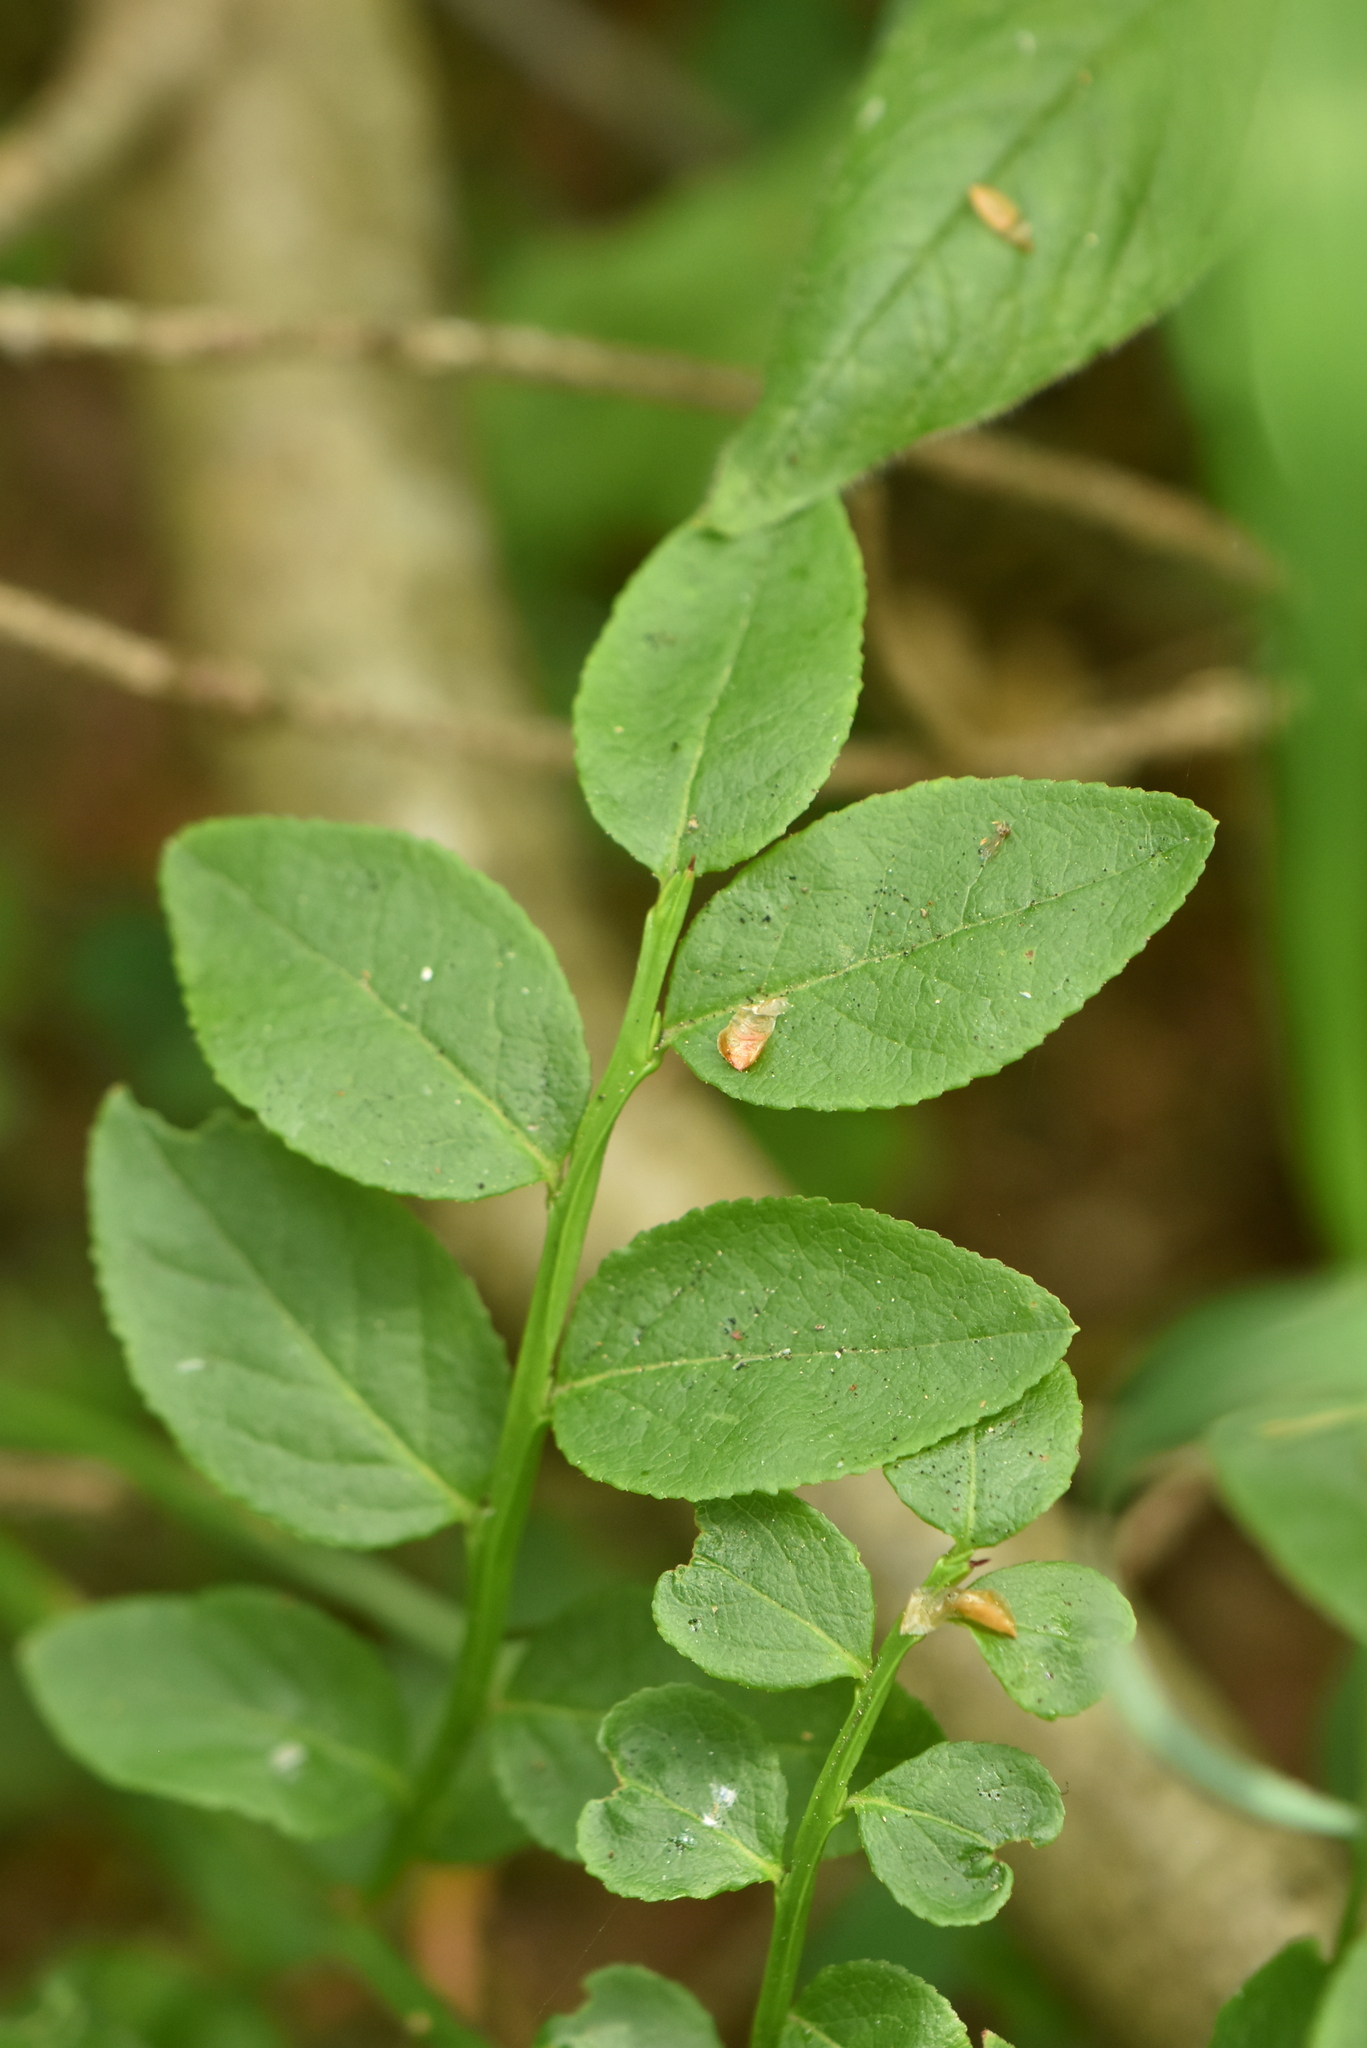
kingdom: Plantae
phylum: Tracheophyta
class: Magnoliopsida
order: Ericales
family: Ericaceae
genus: Vaccinium
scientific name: Vaccinium myrtillus
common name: Bilberry
